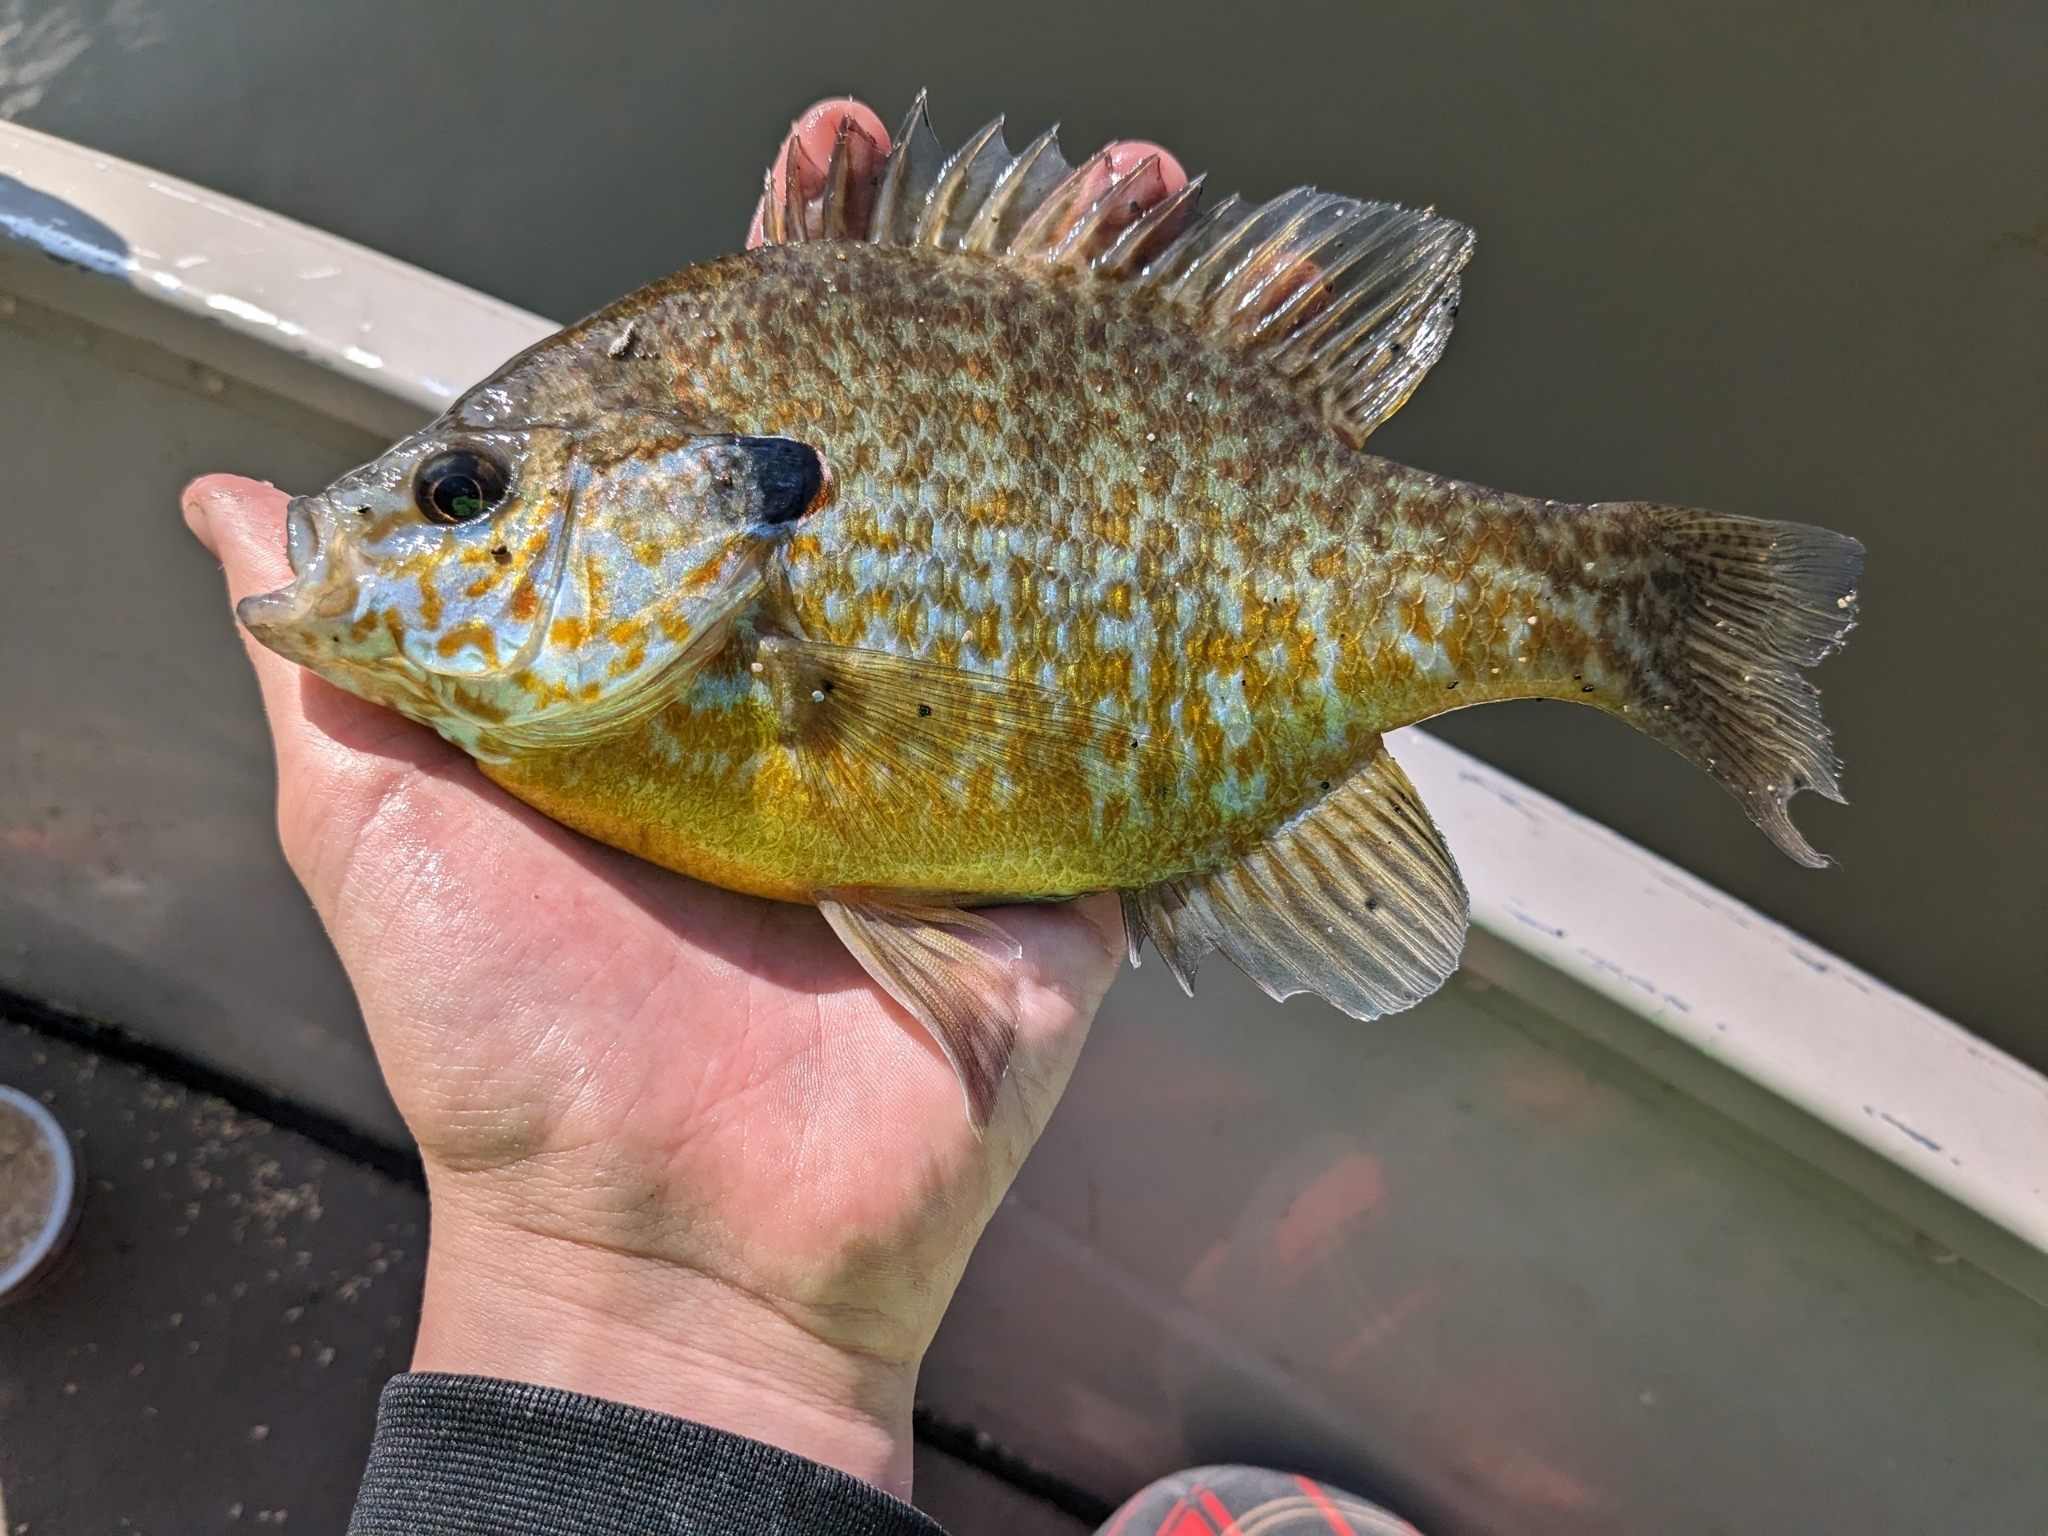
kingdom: Animalia
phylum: Chordata
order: Perciformes
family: Centrarchidae
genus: Lepomis
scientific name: Lepomis
